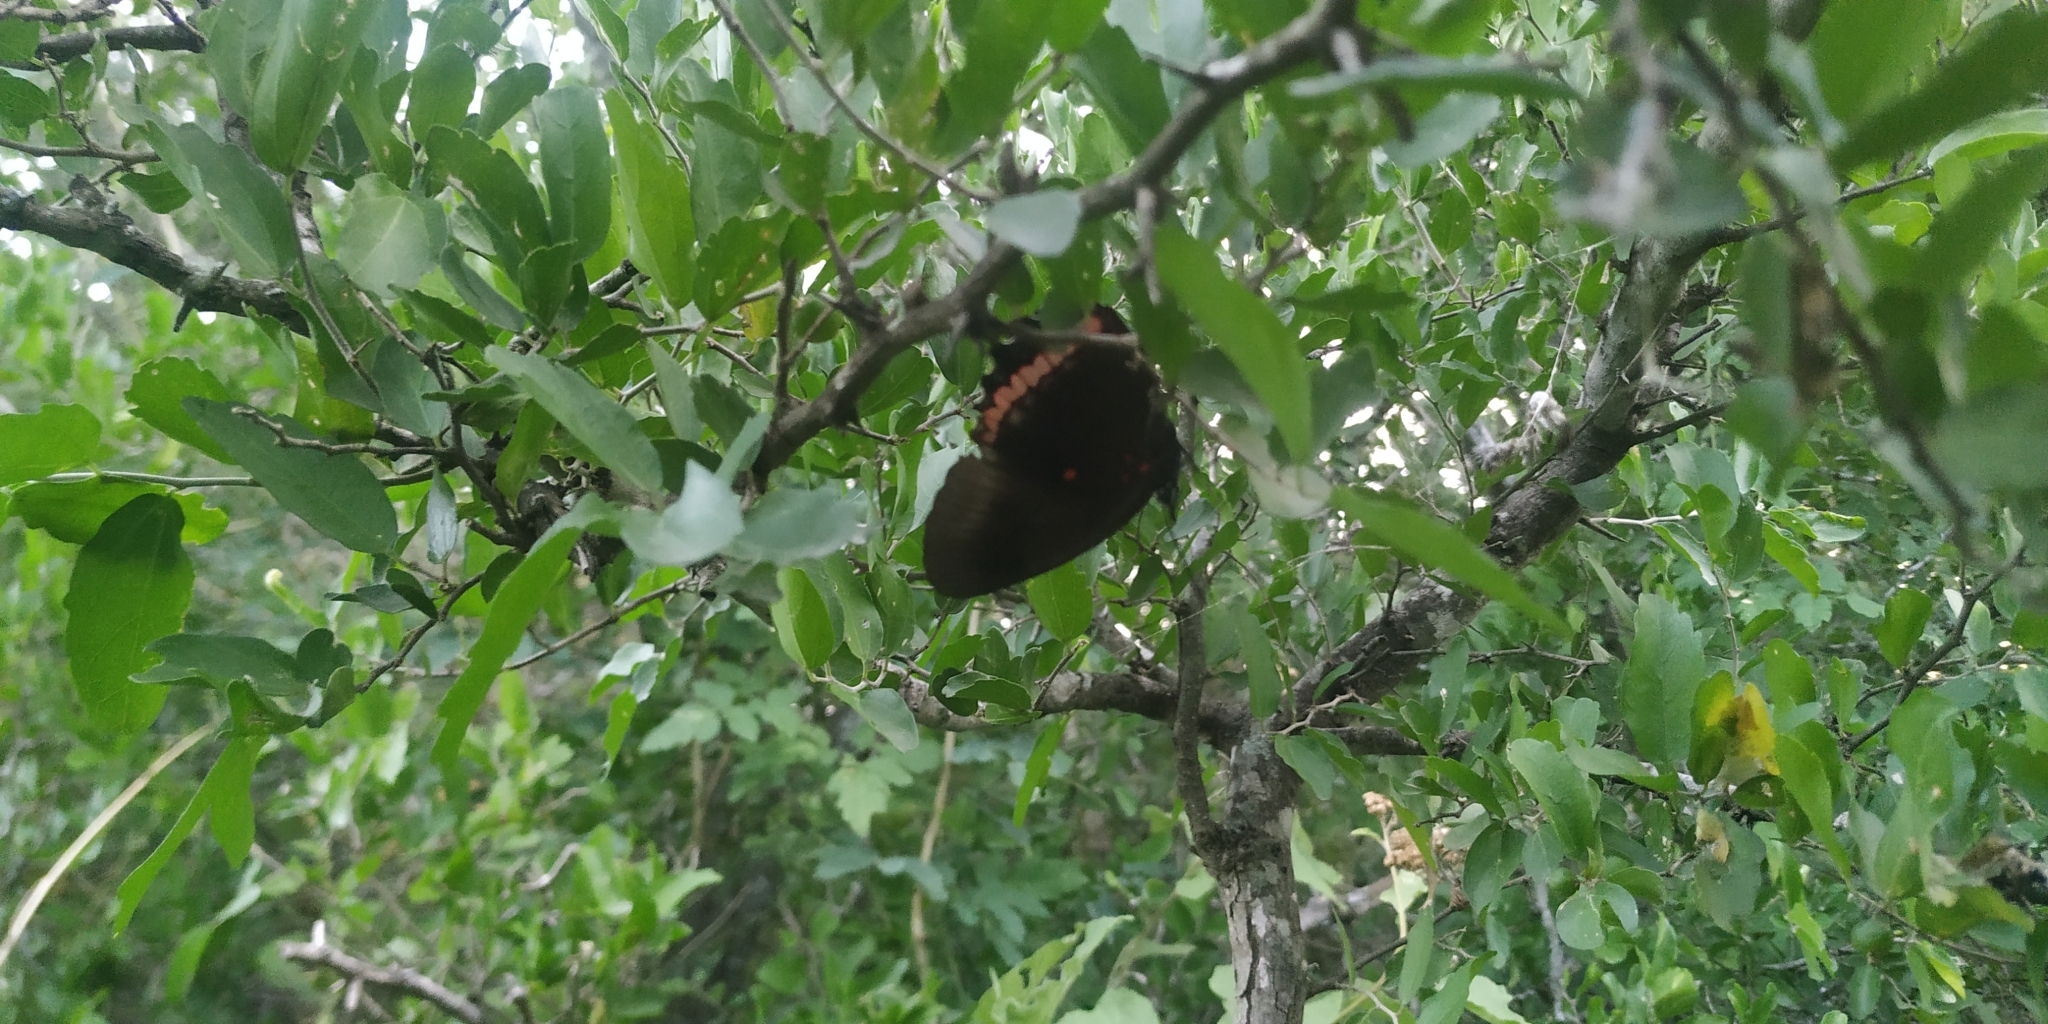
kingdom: Animalia
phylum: Arthropoda
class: Insecta
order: Lepidoptera
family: Nymphalidae
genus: Biblis
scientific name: Biblis aganisa
